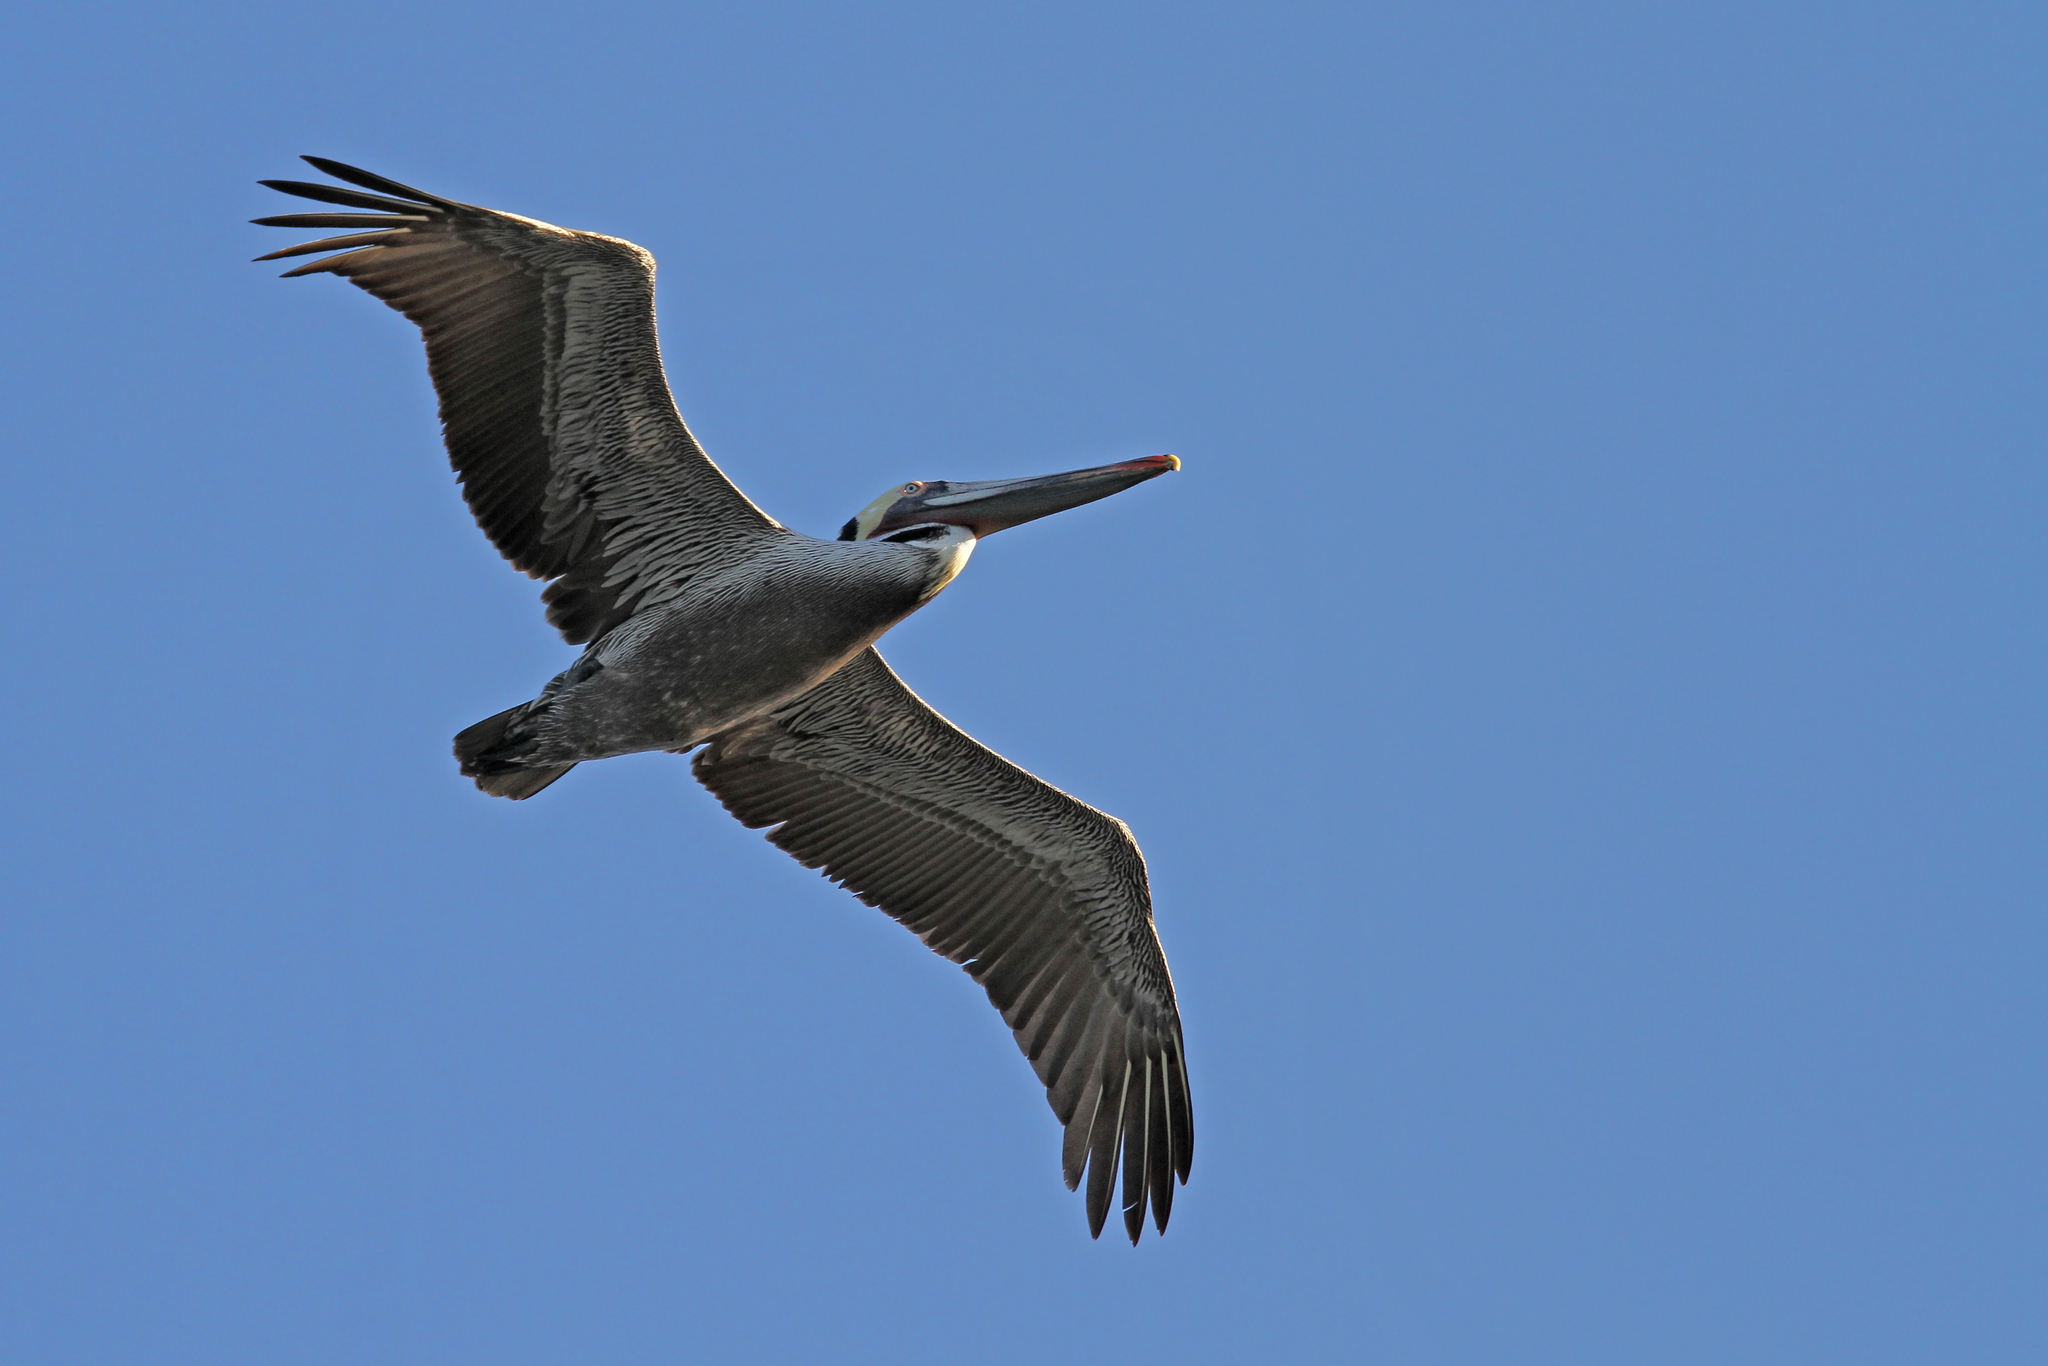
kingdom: Animalia
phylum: Chordata
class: Aves
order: Pelecaniformes
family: Pelecanidae
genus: Pelecanus
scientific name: Pelecanus occidentalis
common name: Brown pelican
